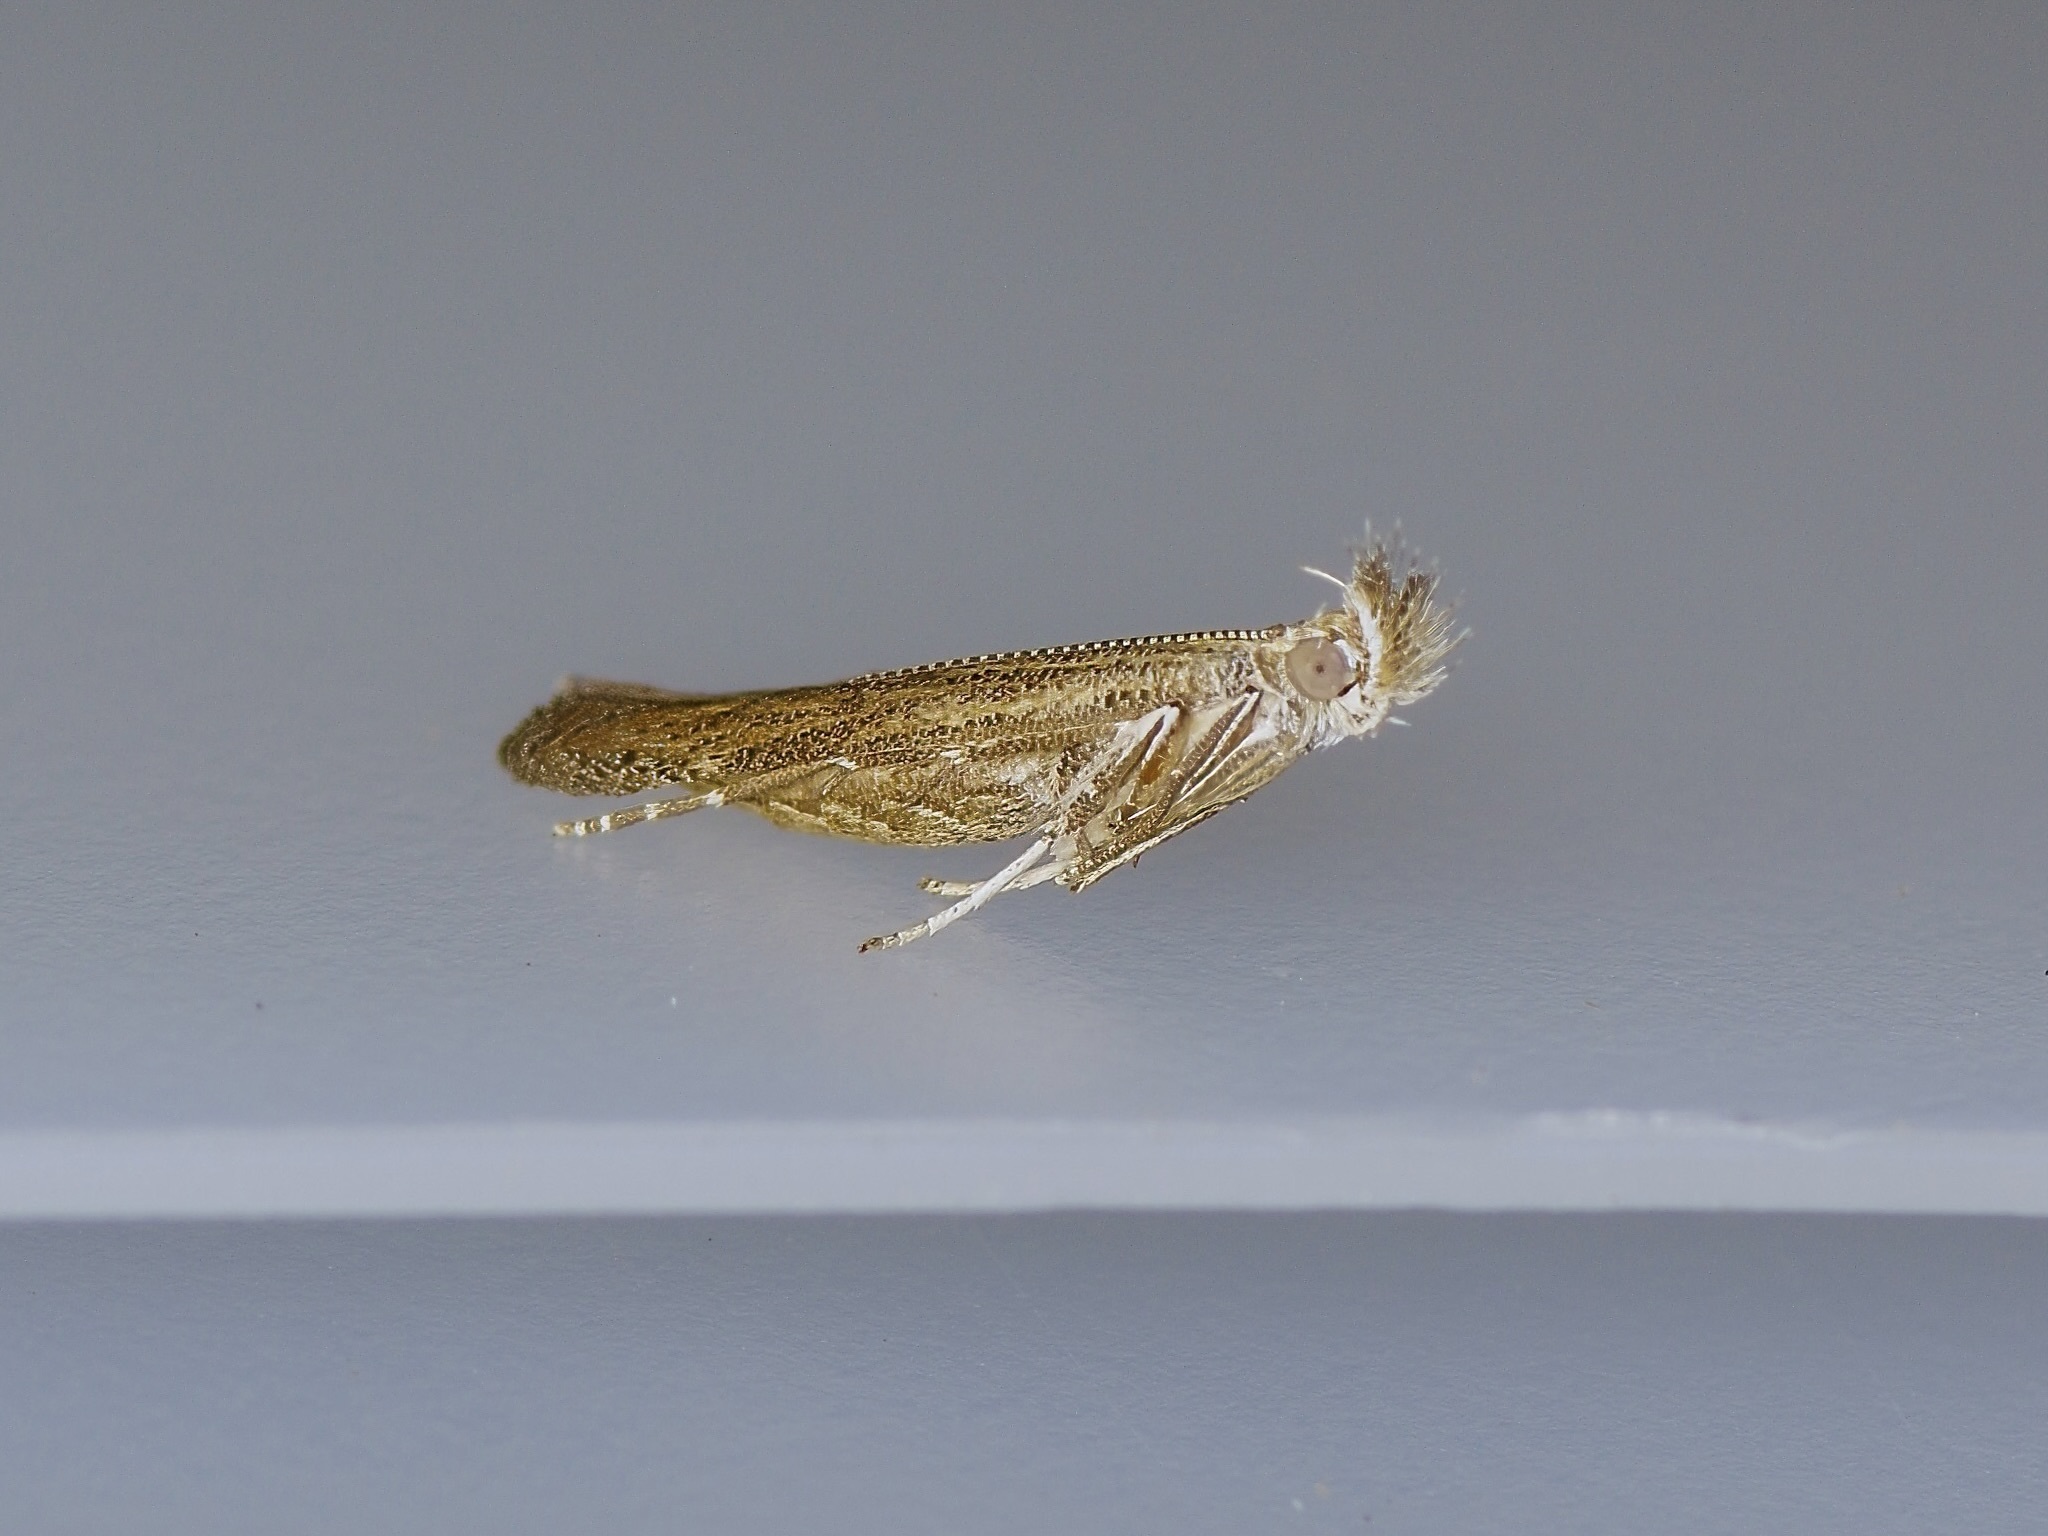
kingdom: Animalia
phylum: Arthropoda
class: Insecta
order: Lepidoptera
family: Gelechiidae
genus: Isophrictis
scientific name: Isophrictis similiella
